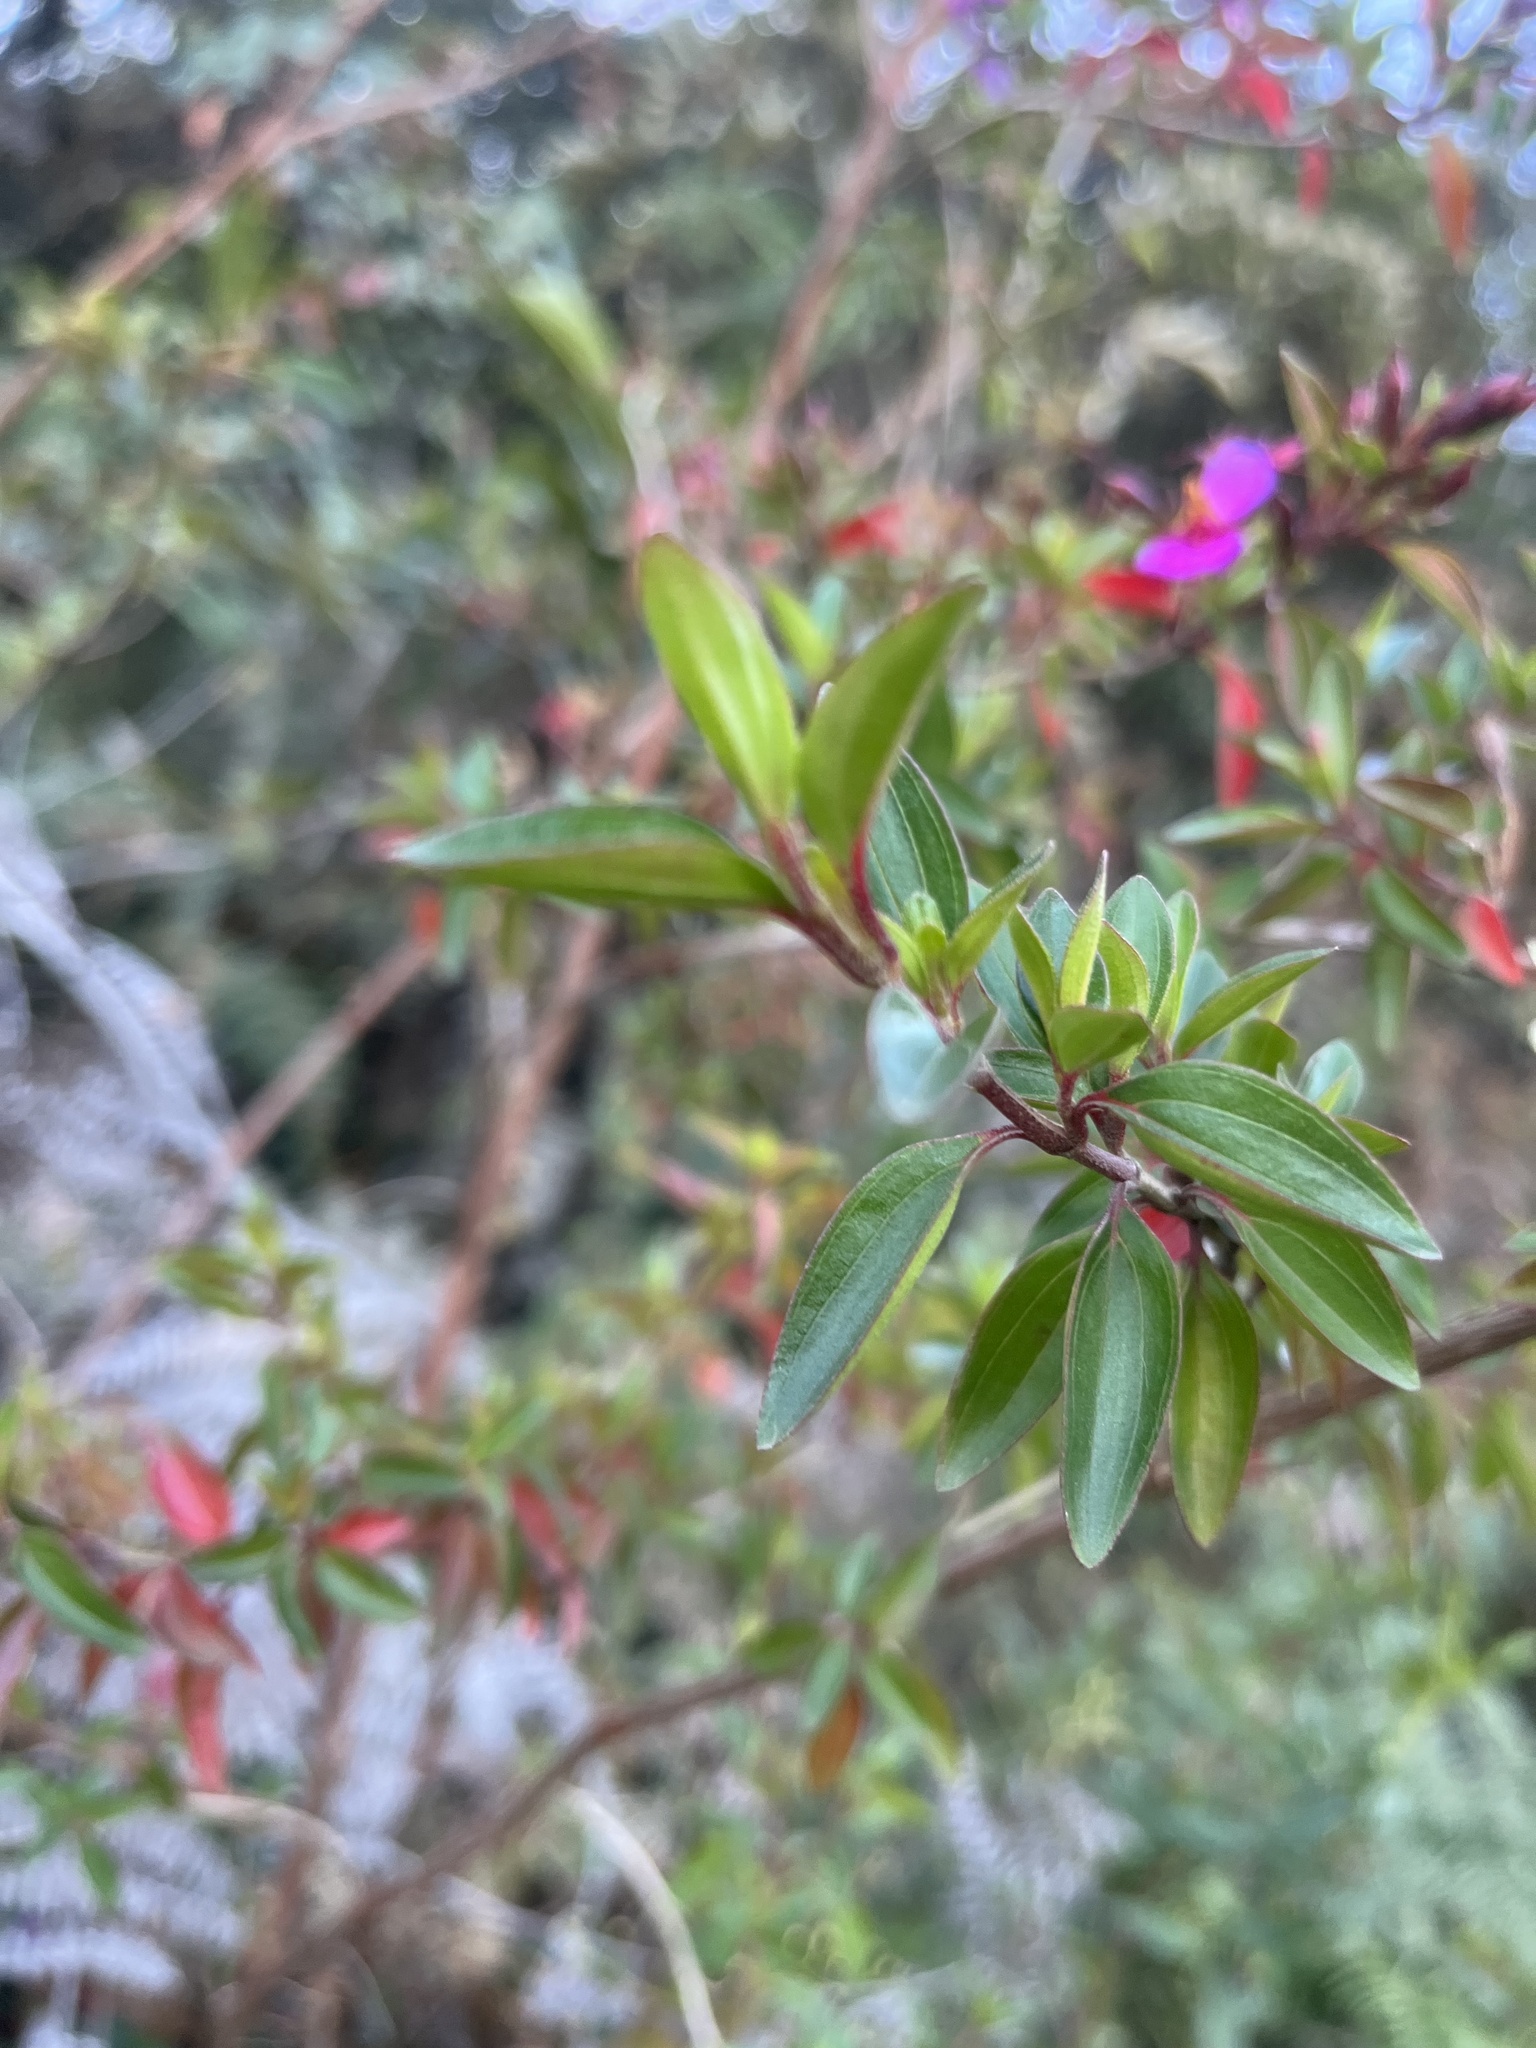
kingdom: Plantae
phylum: Tracheophyta
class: Magnoliopsida
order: Myrtales
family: Melastomataceae
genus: Monochaetum
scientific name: Monochaetum myrtoideum
